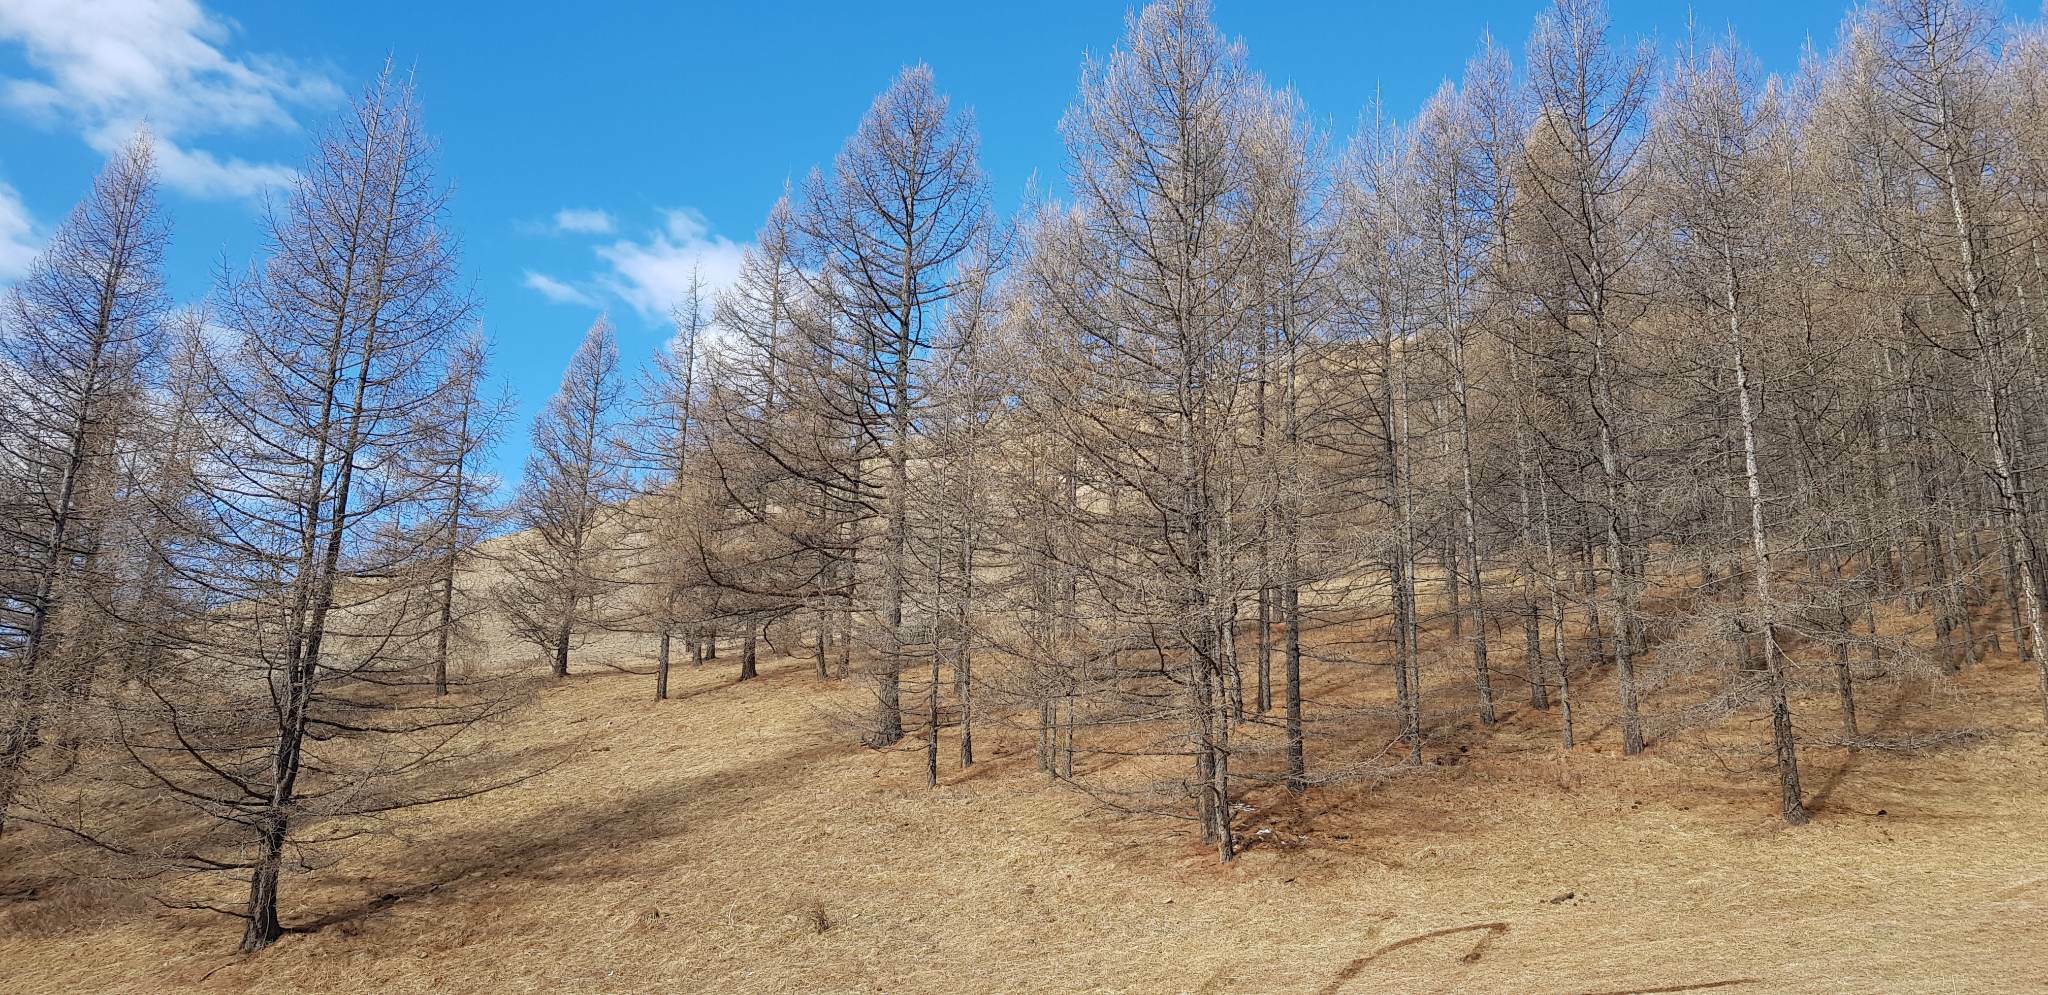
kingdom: Plantae
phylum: Tracheophyta
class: Pinopsida
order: Pinales
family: Pinaceae
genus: Larix
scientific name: Larix sibirica
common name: Siberian larch
